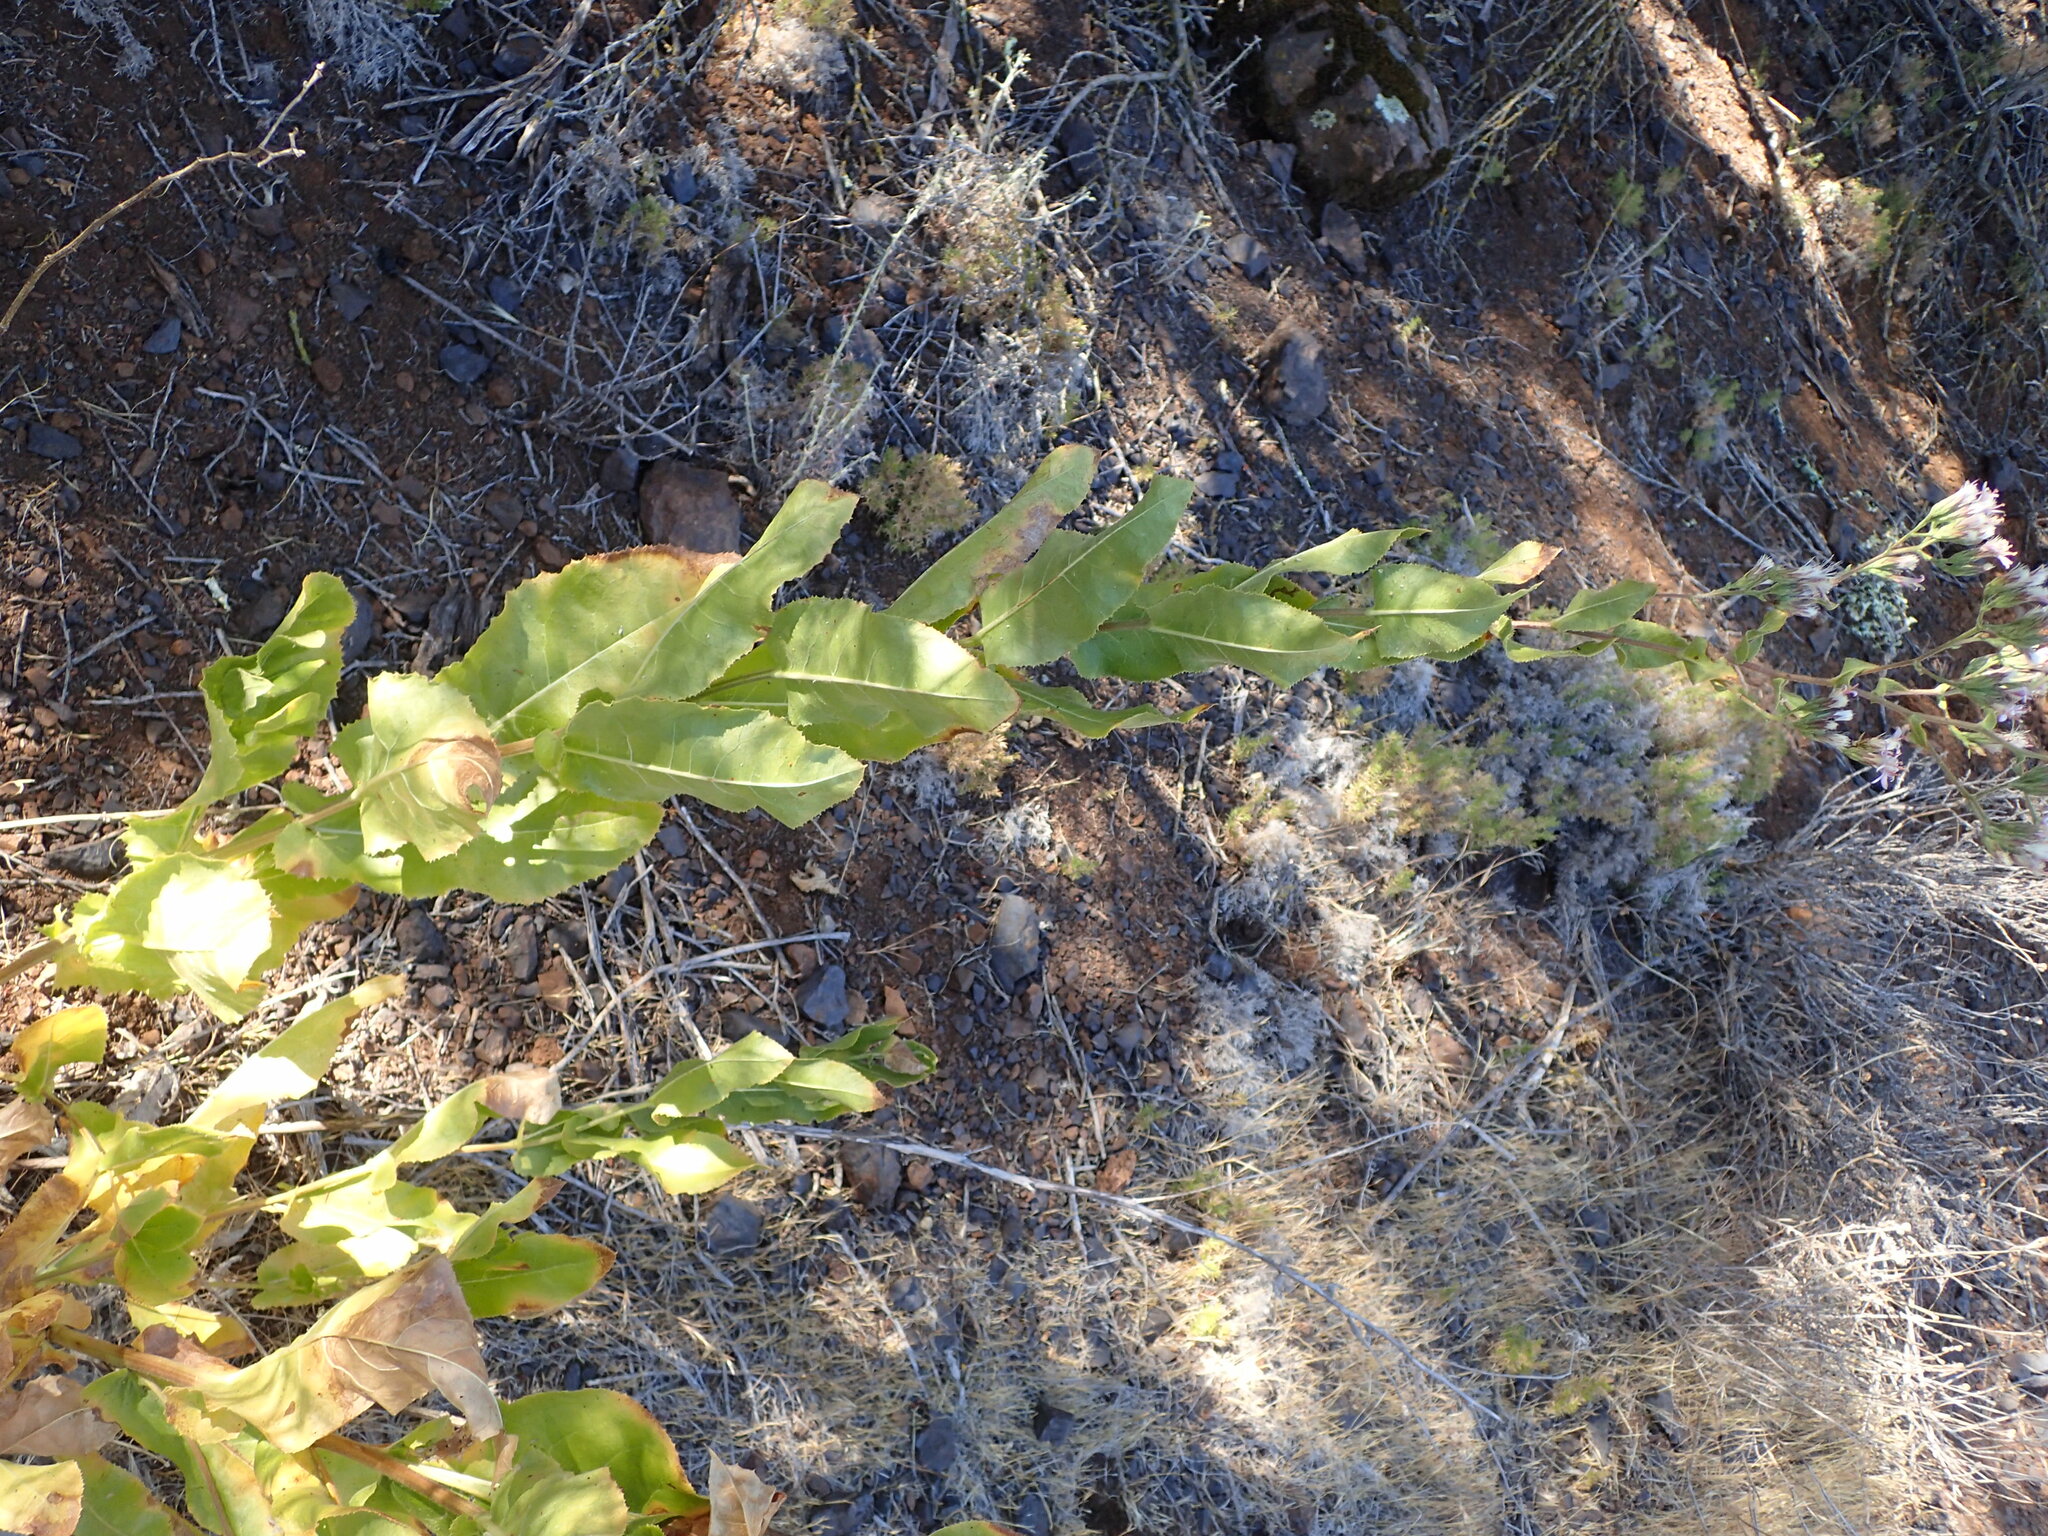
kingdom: Plantae
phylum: Tracheophyta
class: Magnoliopsida
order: Asterales
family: Asteraceae
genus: Acourtia
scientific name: Acourtia microcephala
